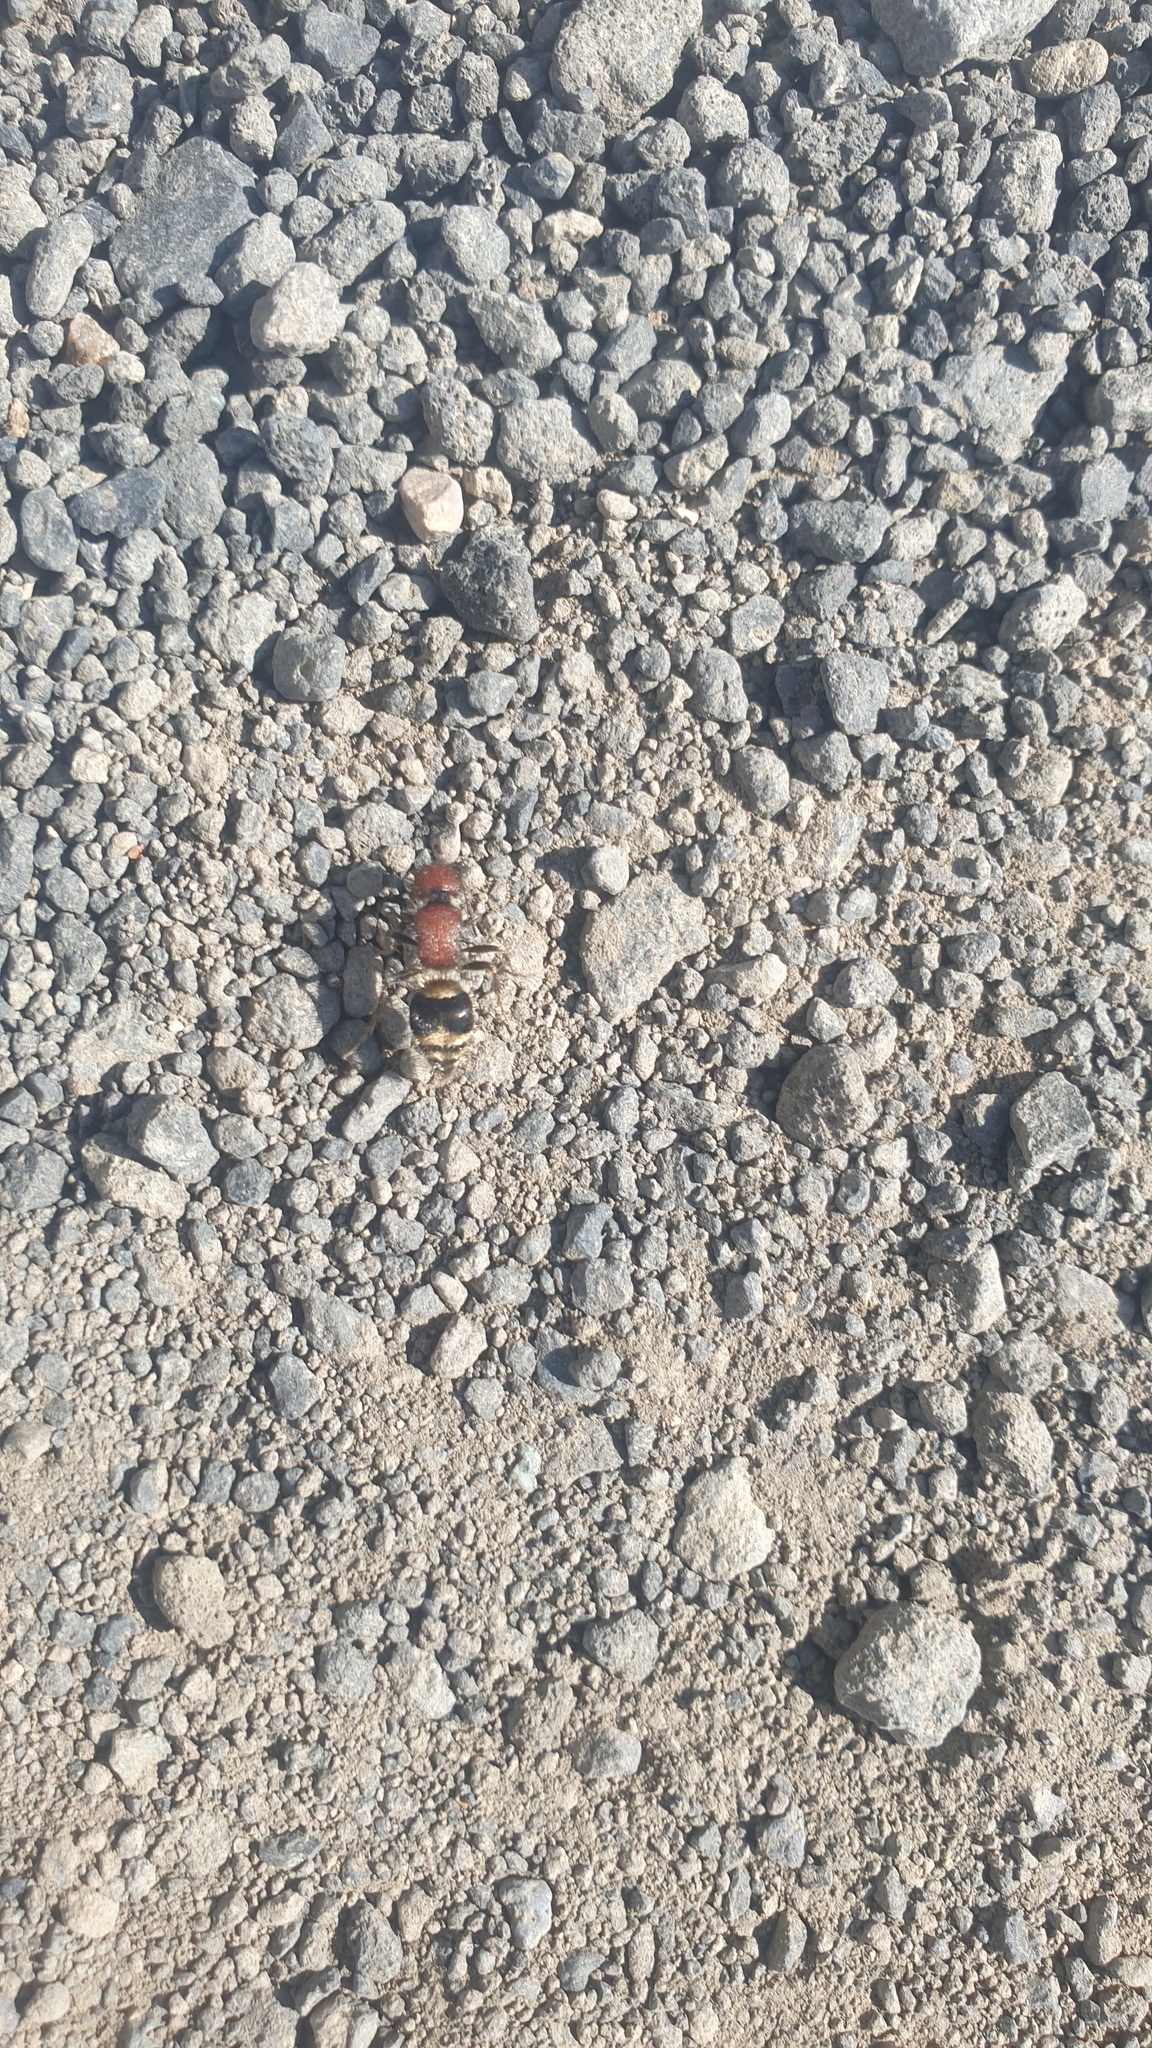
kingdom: Animalia
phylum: Arthropoda
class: Insecta
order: Hymenoptera
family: Mutillidae
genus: Platymyrmilla
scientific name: Platymyrmilla quinquefasciata
